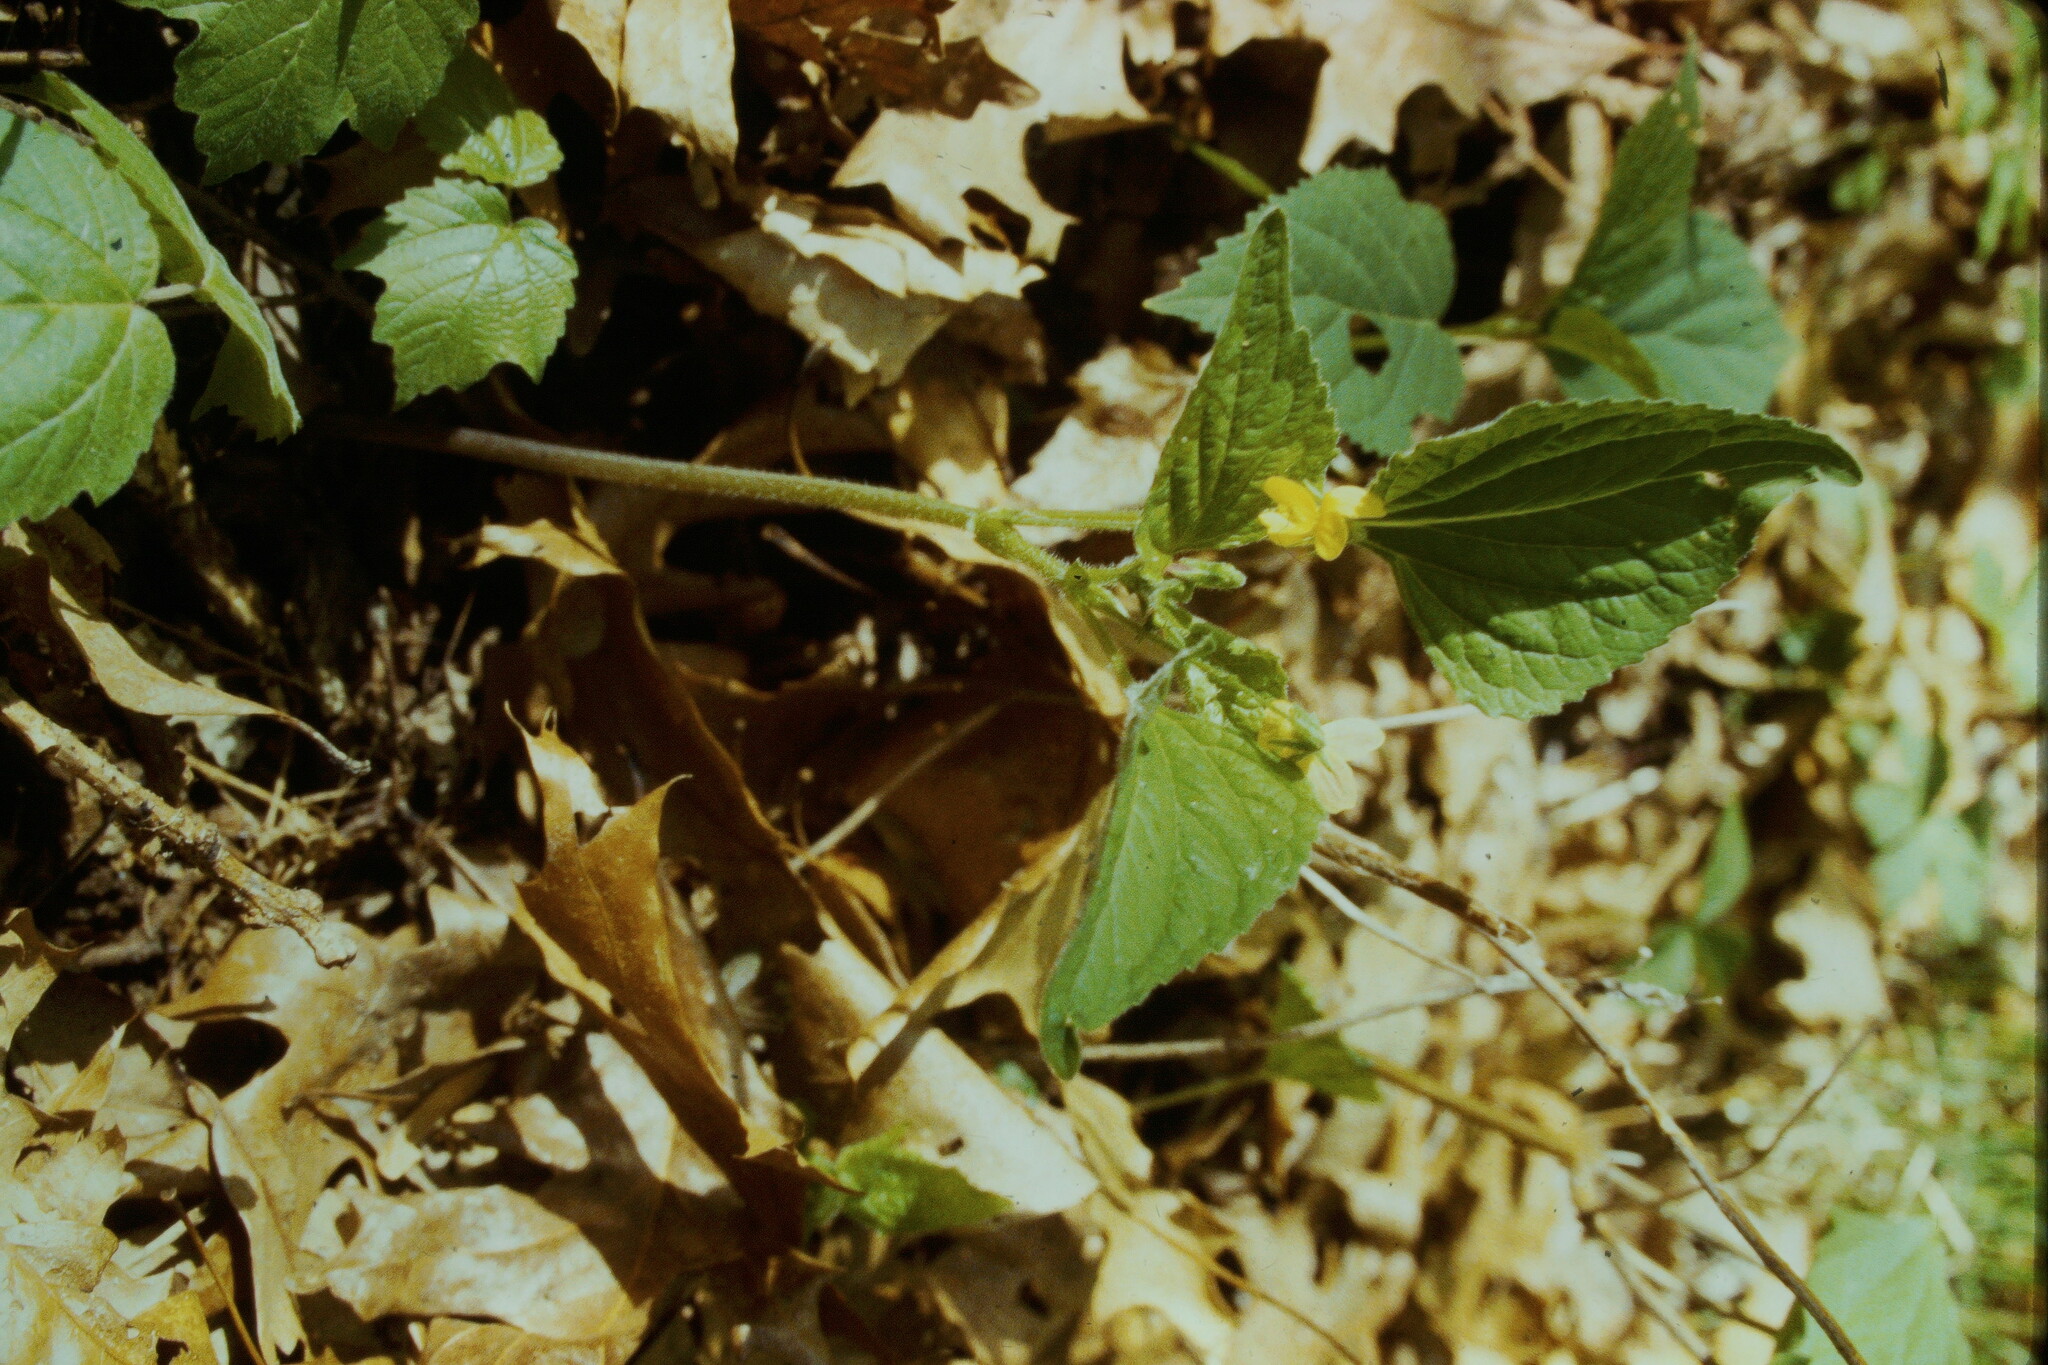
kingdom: Plantae
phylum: Tracheophyta
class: Magnoliopsida
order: Malpighiales
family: Violaceae
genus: Viola
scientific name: Viola glaberrima
